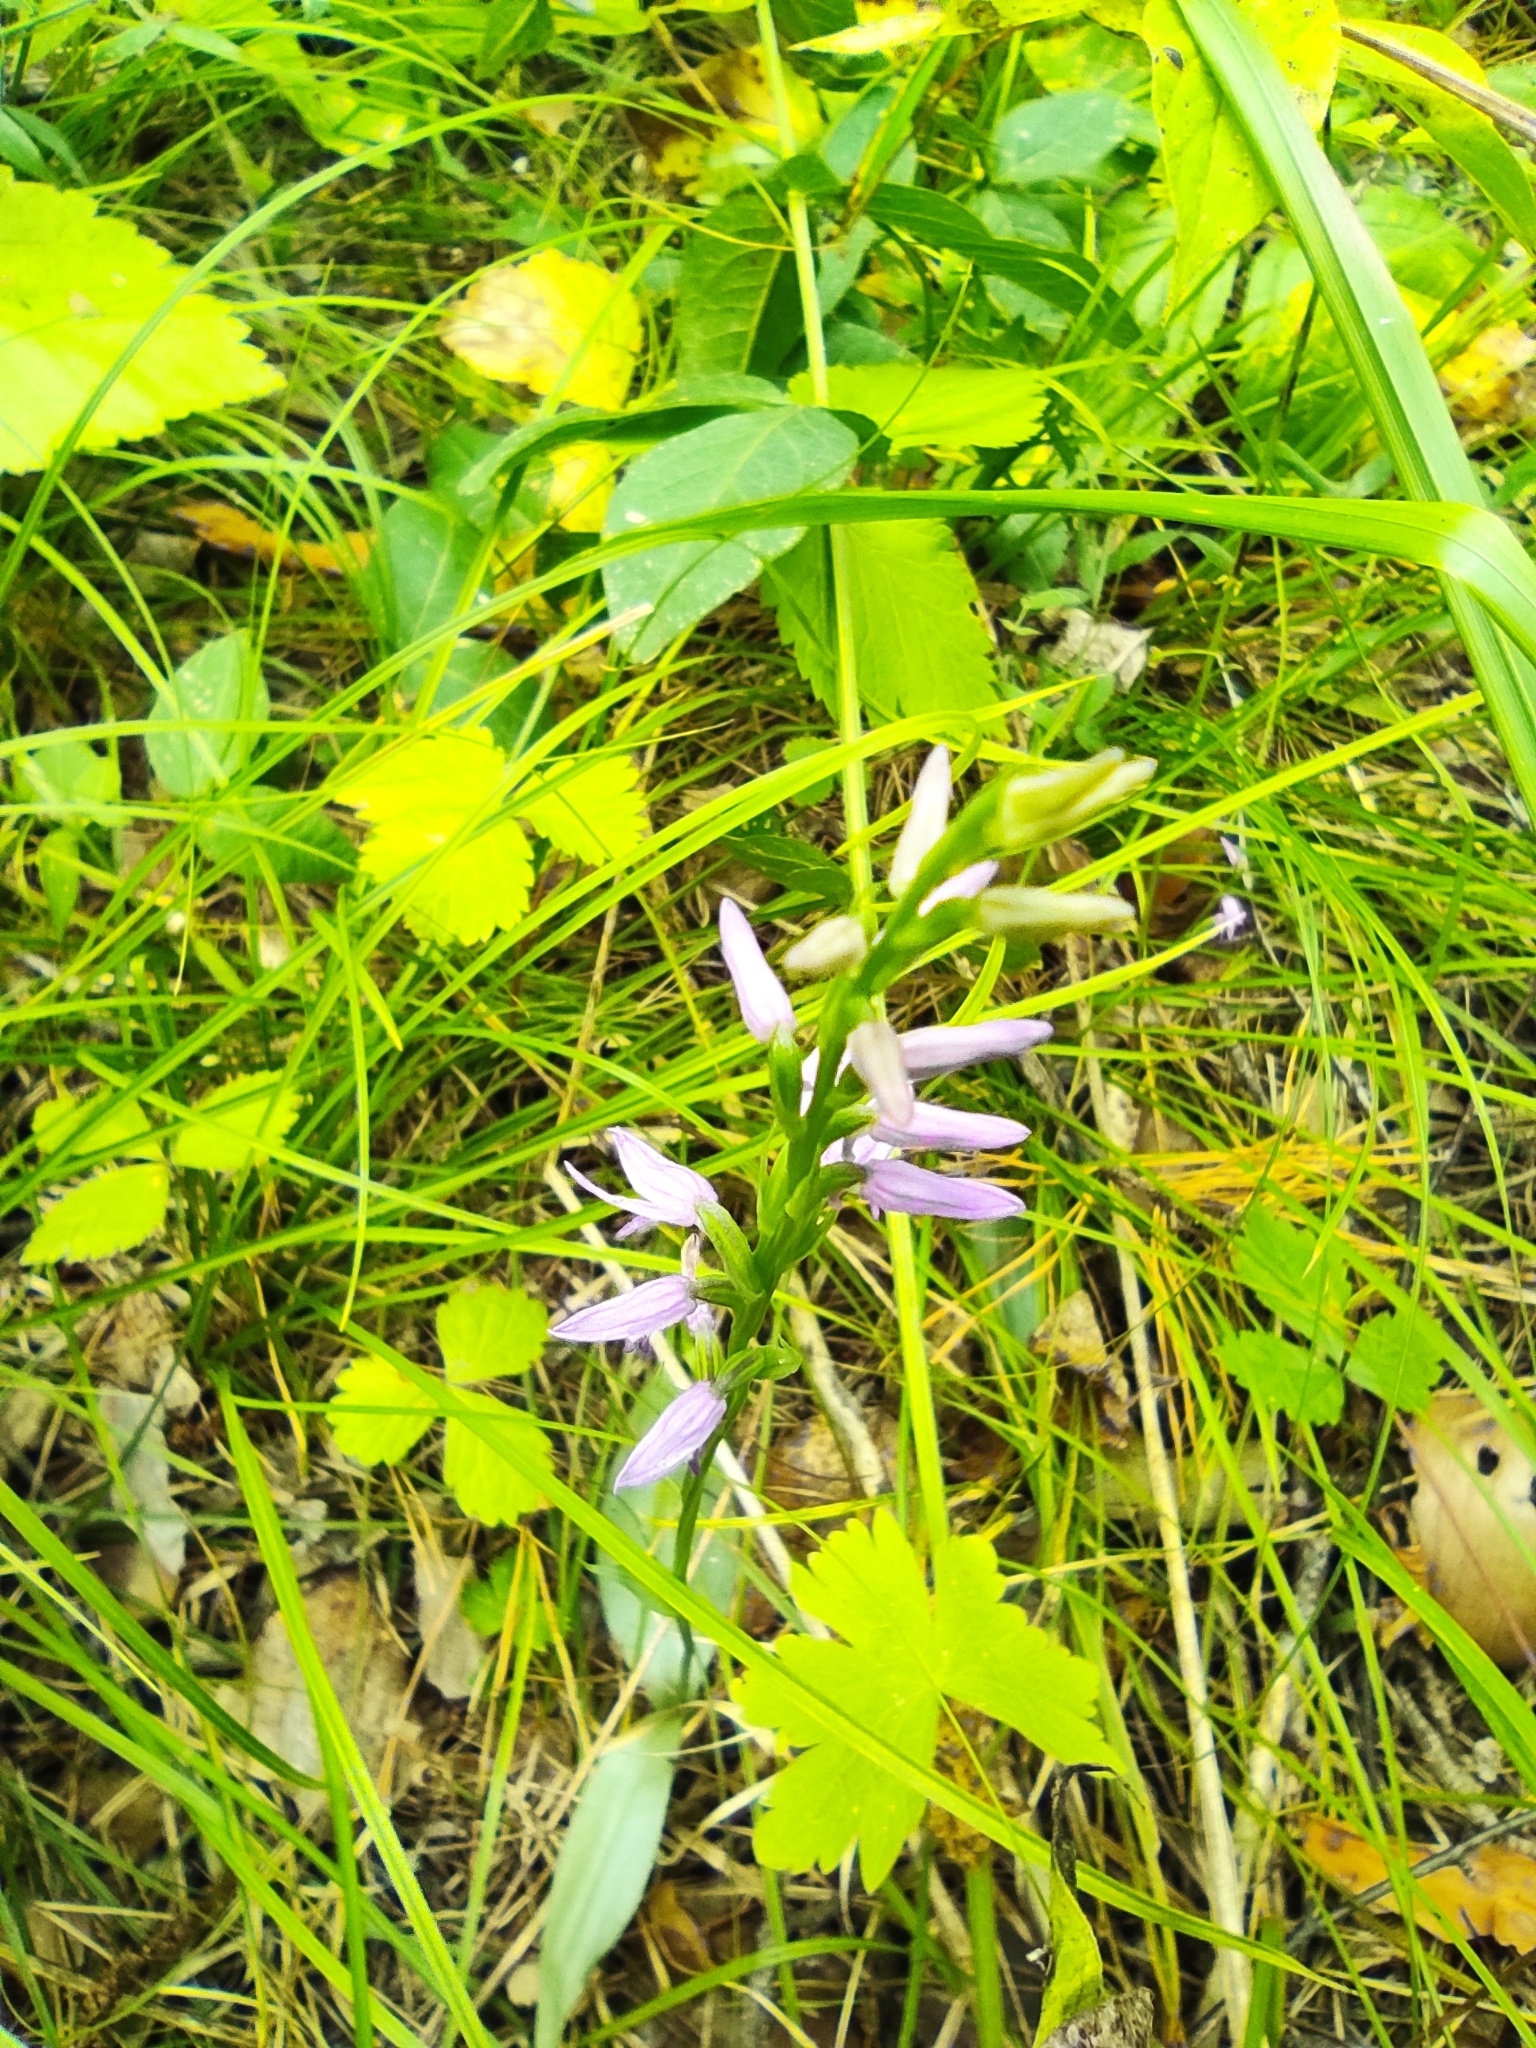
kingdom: Plantae
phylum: Tracheophyta
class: Liliopsida
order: Asparagales
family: Orchidaceae
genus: Hemipilia
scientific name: Hemipilia cucullata
